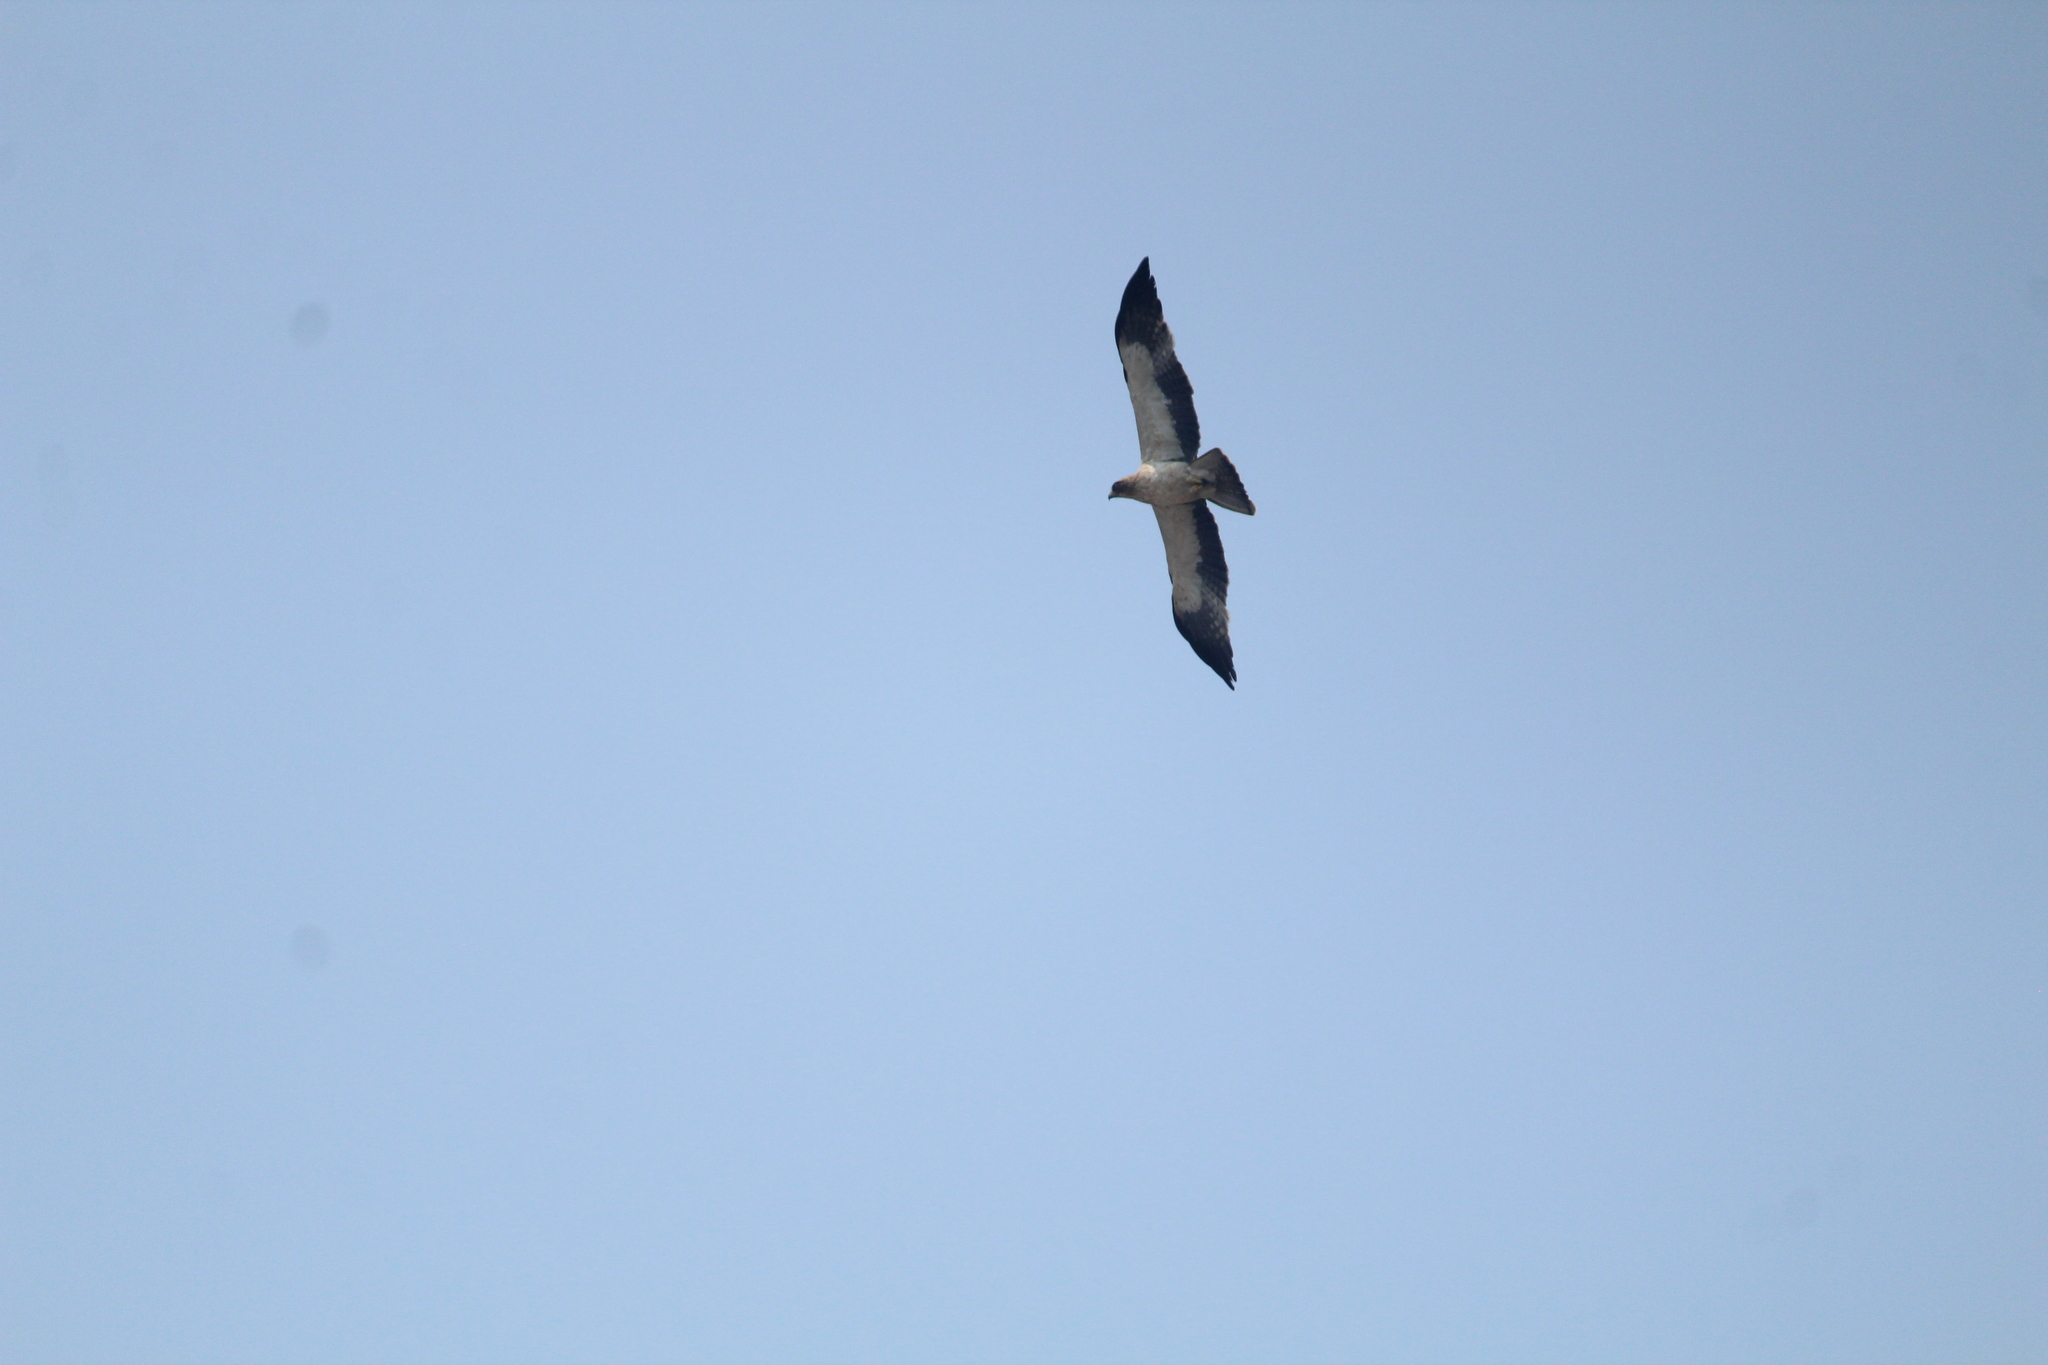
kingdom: Animalia
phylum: Chordata
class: Aves
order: Accipitriformes
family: Accipitridae
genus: Hieraaetus
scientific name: Hieraaetus pennatus
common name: Booted eagle
